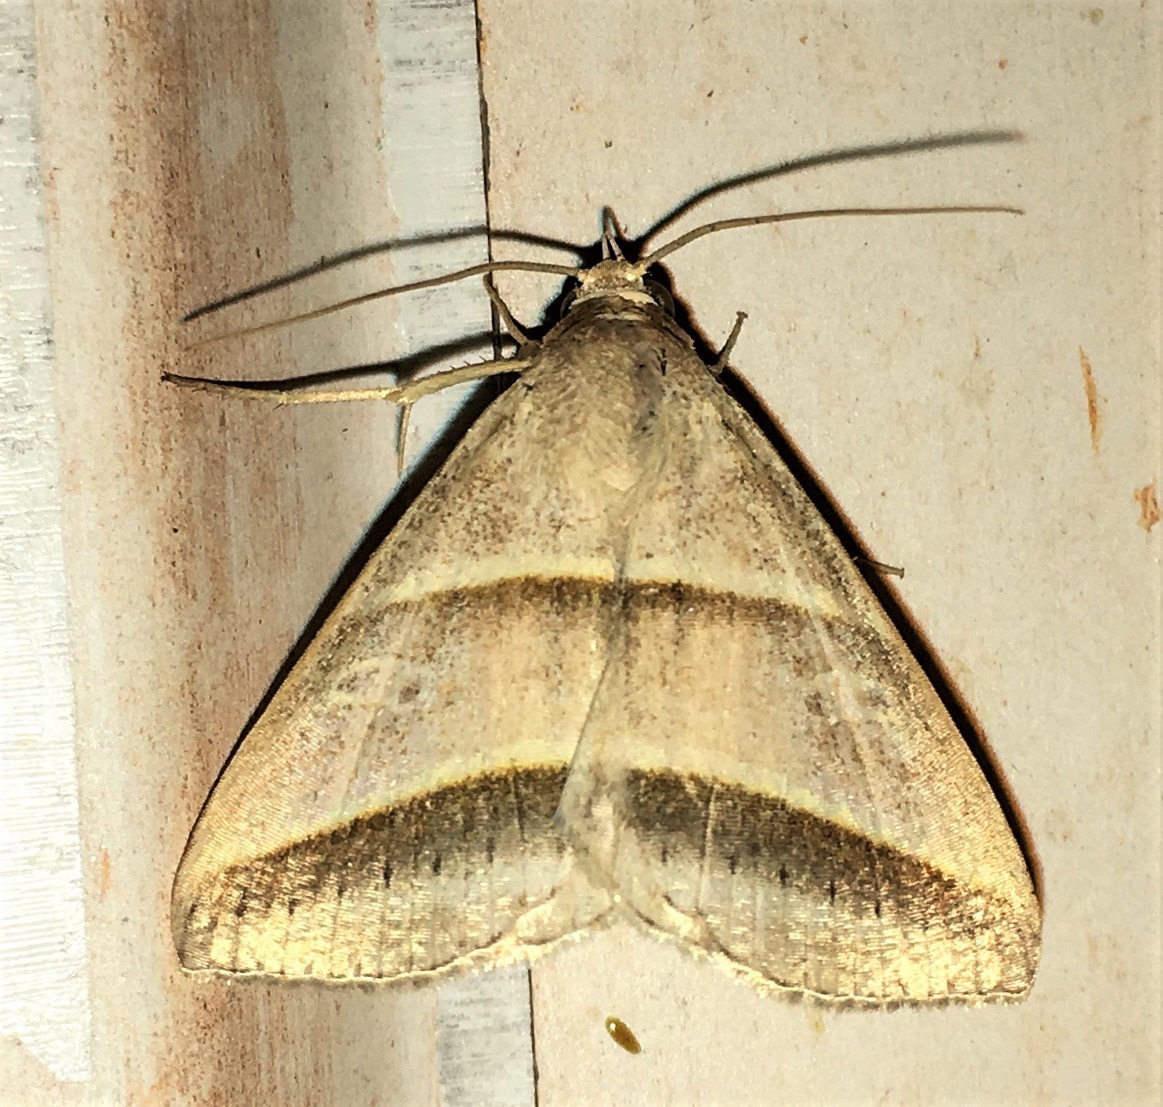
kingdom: Animalia
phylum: Arthropoda
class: Insecta
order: Lepidoptera
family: Erebidae
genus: Perasia
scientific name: Perasia helvina
